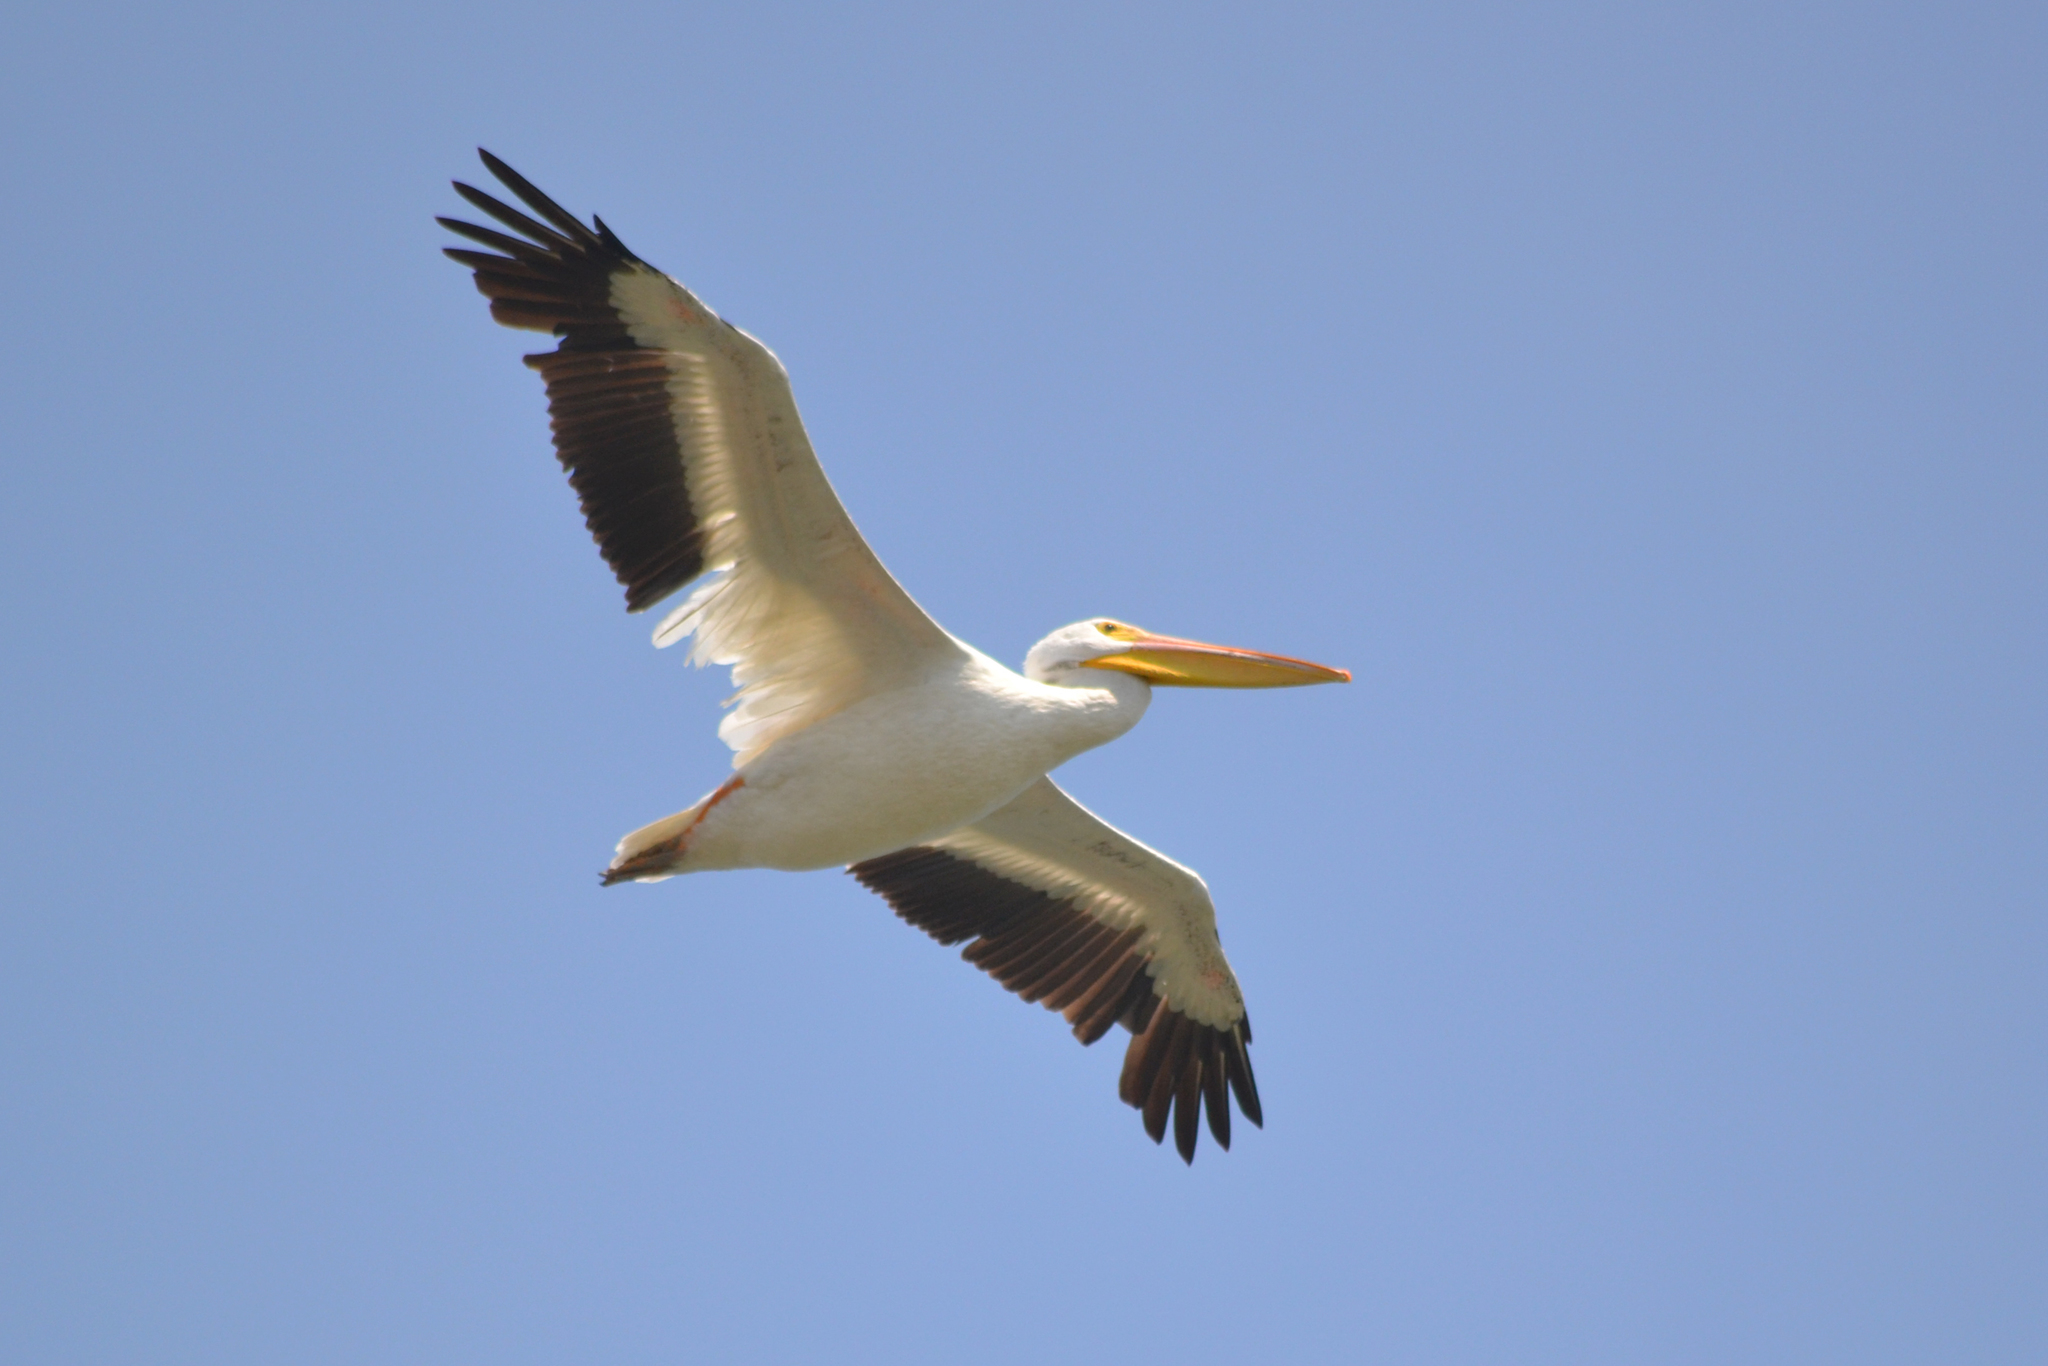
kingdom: Animalia
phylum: Chordata
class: Aves
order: Pelecaniformes
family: Pelecanidae
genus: Pelecanus
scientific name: Pelecanus erythrorhynchos
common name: American white pelican
